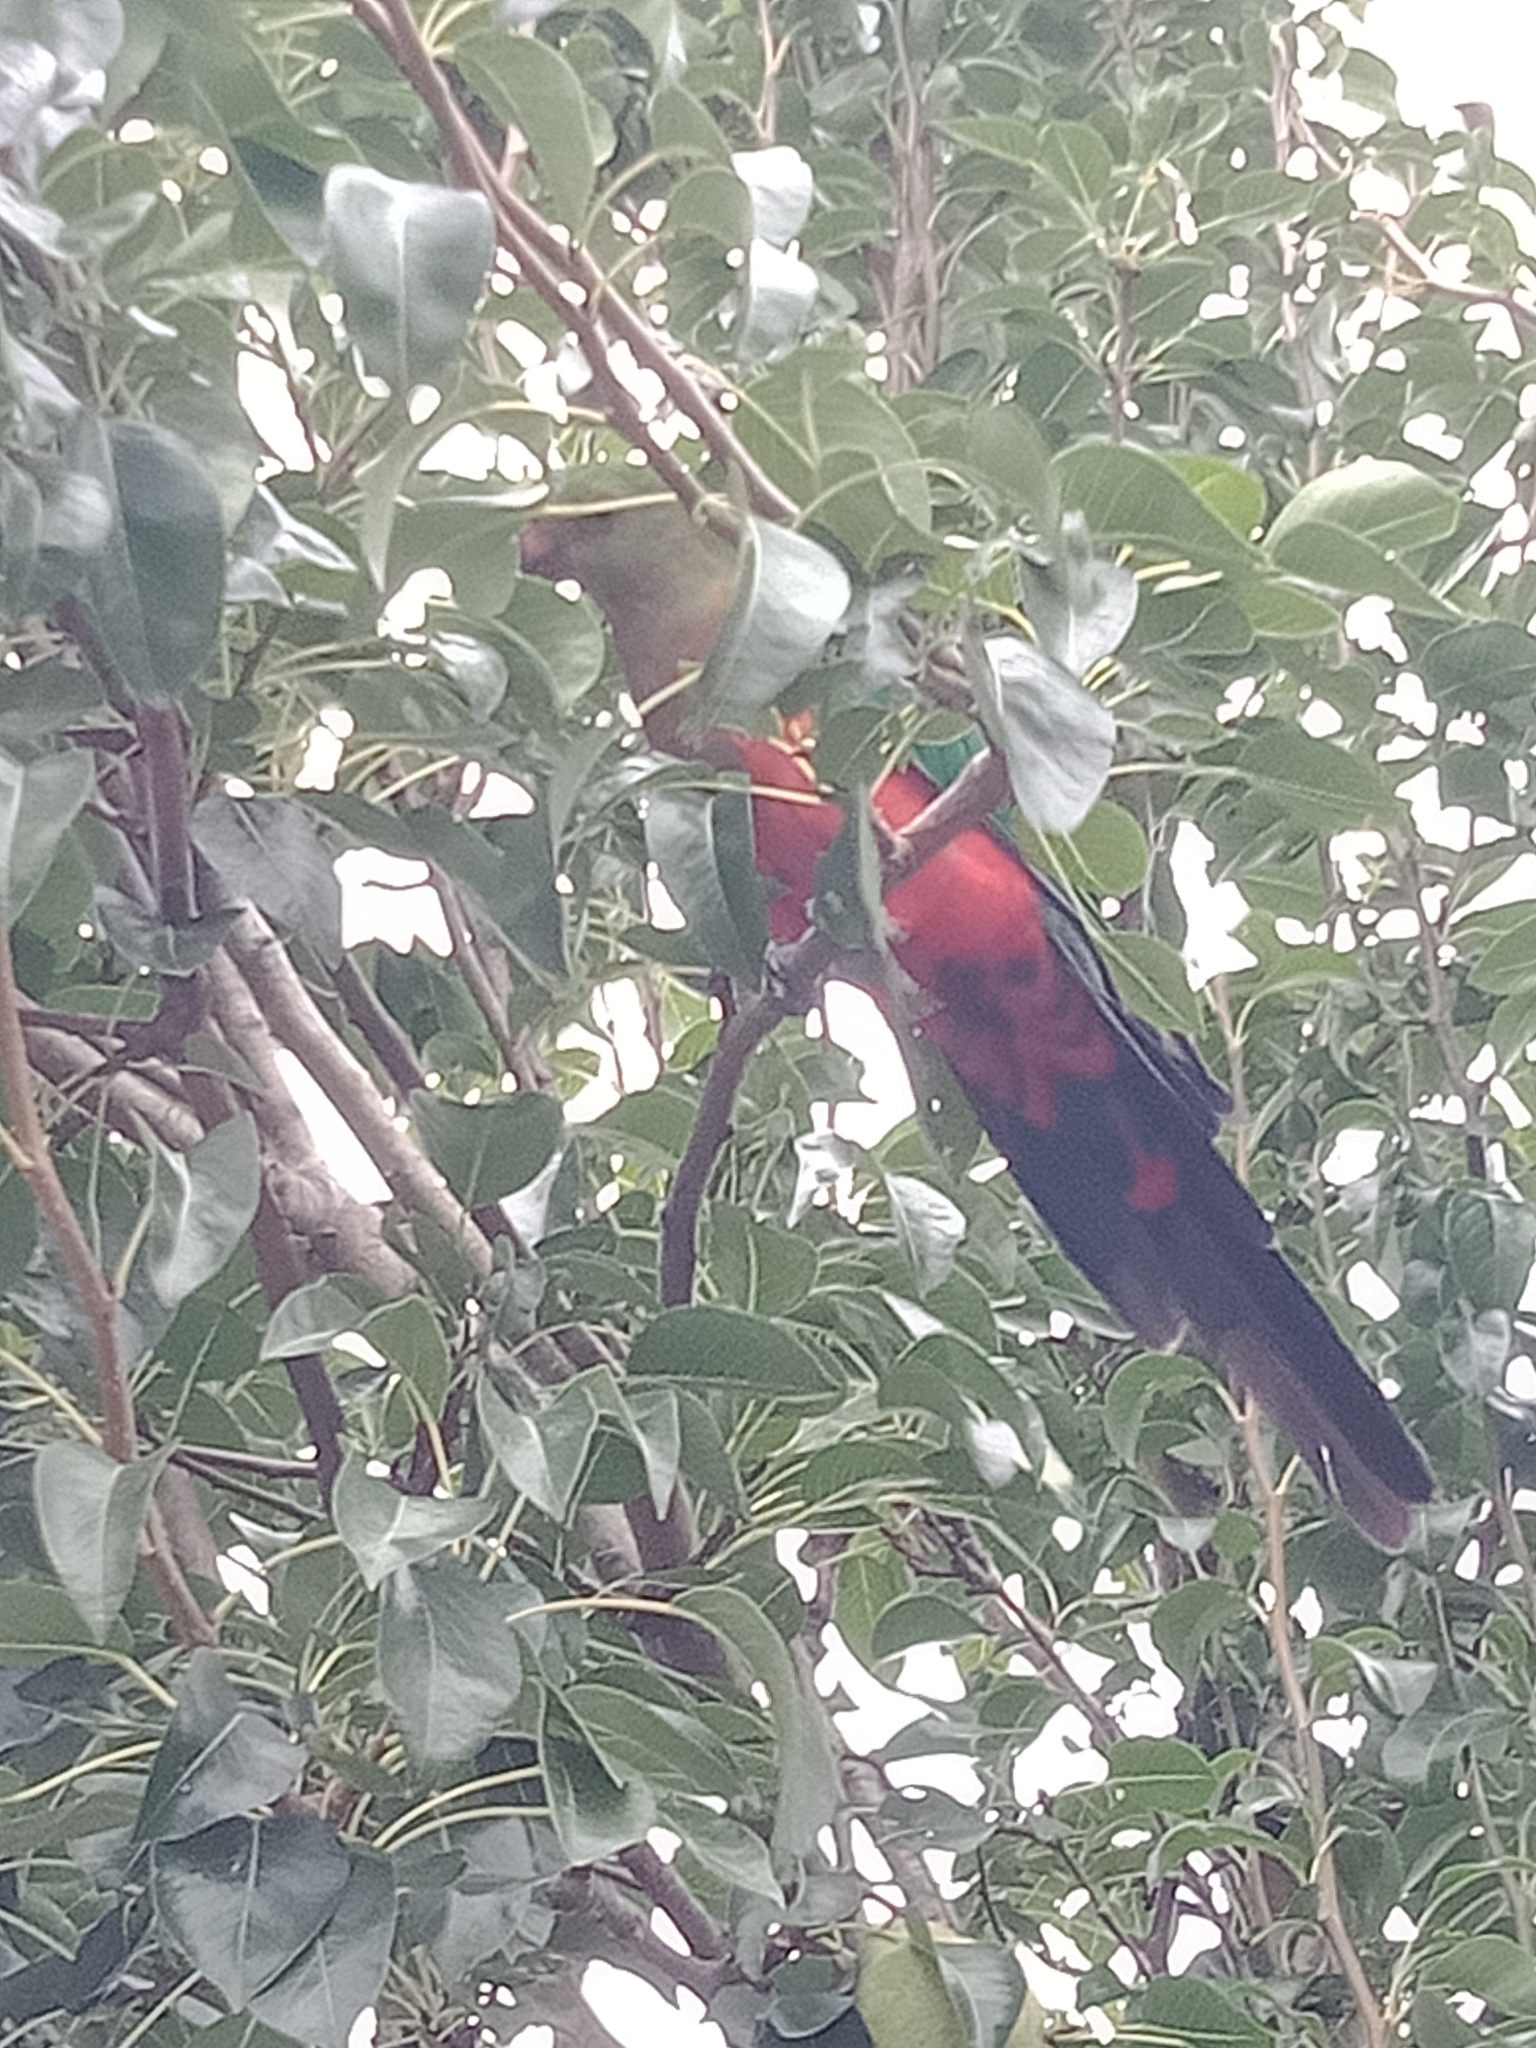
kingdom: Animalia
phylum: Chordata
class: Aves
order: Psittaciformes
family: Psittacidae
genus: Alisterus
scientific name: Alisterus scapularis
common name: Australian king parrot
